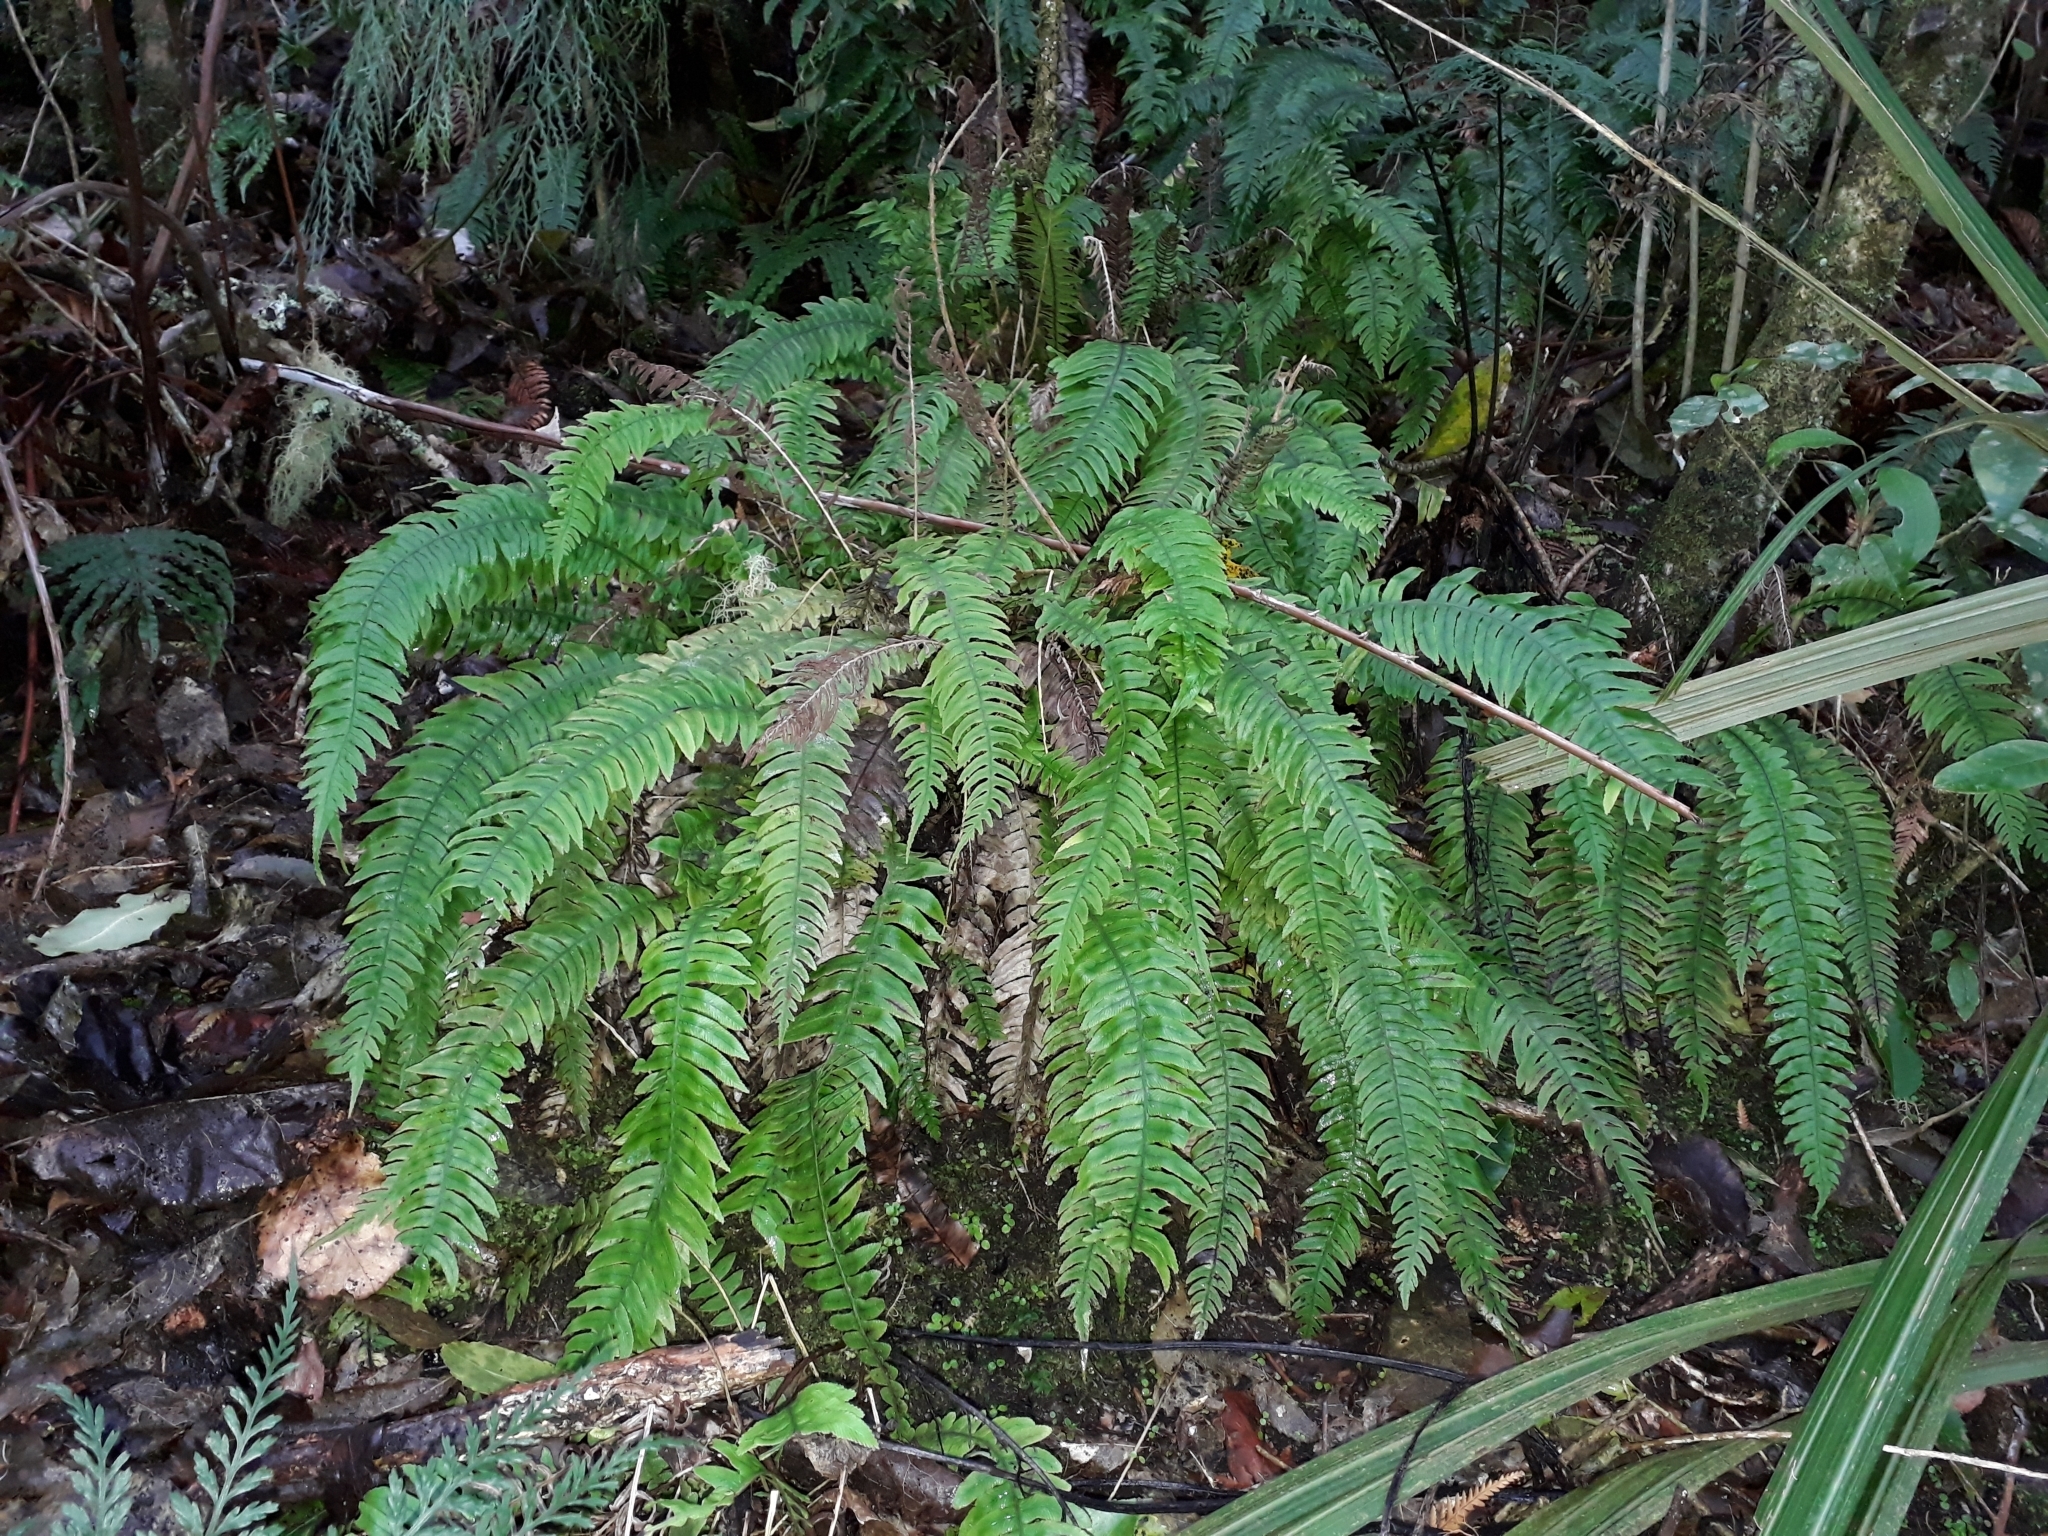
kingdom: Plantae
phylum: Tracheophyta
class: Polypodiopsida
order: Polypodiales
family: Blechnaceae
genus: Austroblechnum
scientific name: Austroblechnum lanceolatum
